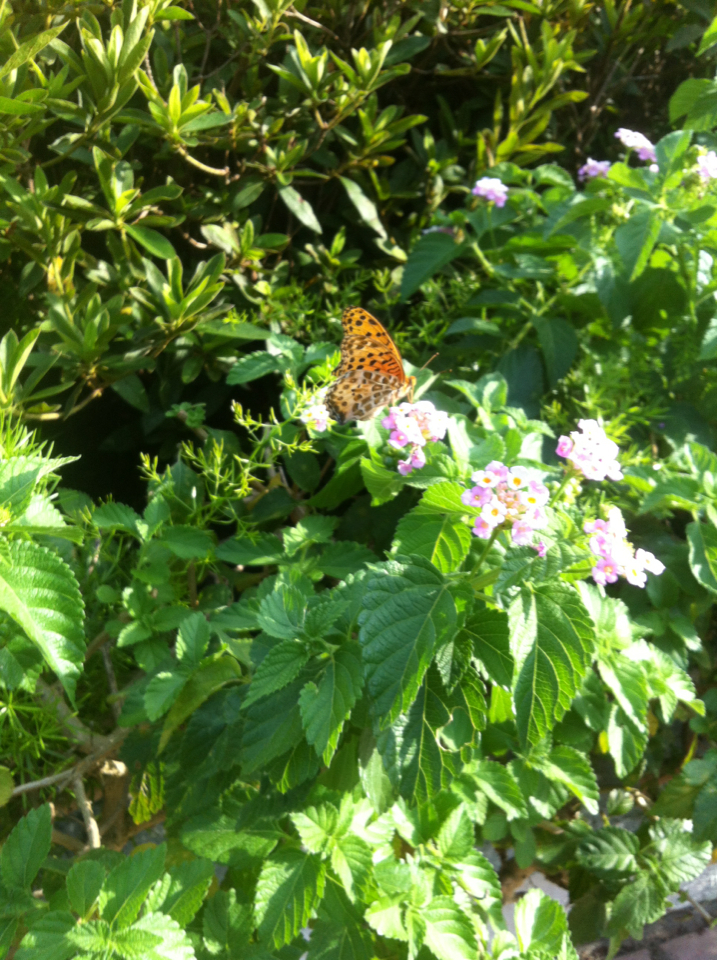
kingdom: Animalia
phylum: Arthropoda
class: Insecta
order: Lepidoptera
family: Nymphalidae
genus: Argynnis
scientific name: Argynnis hyperbius
